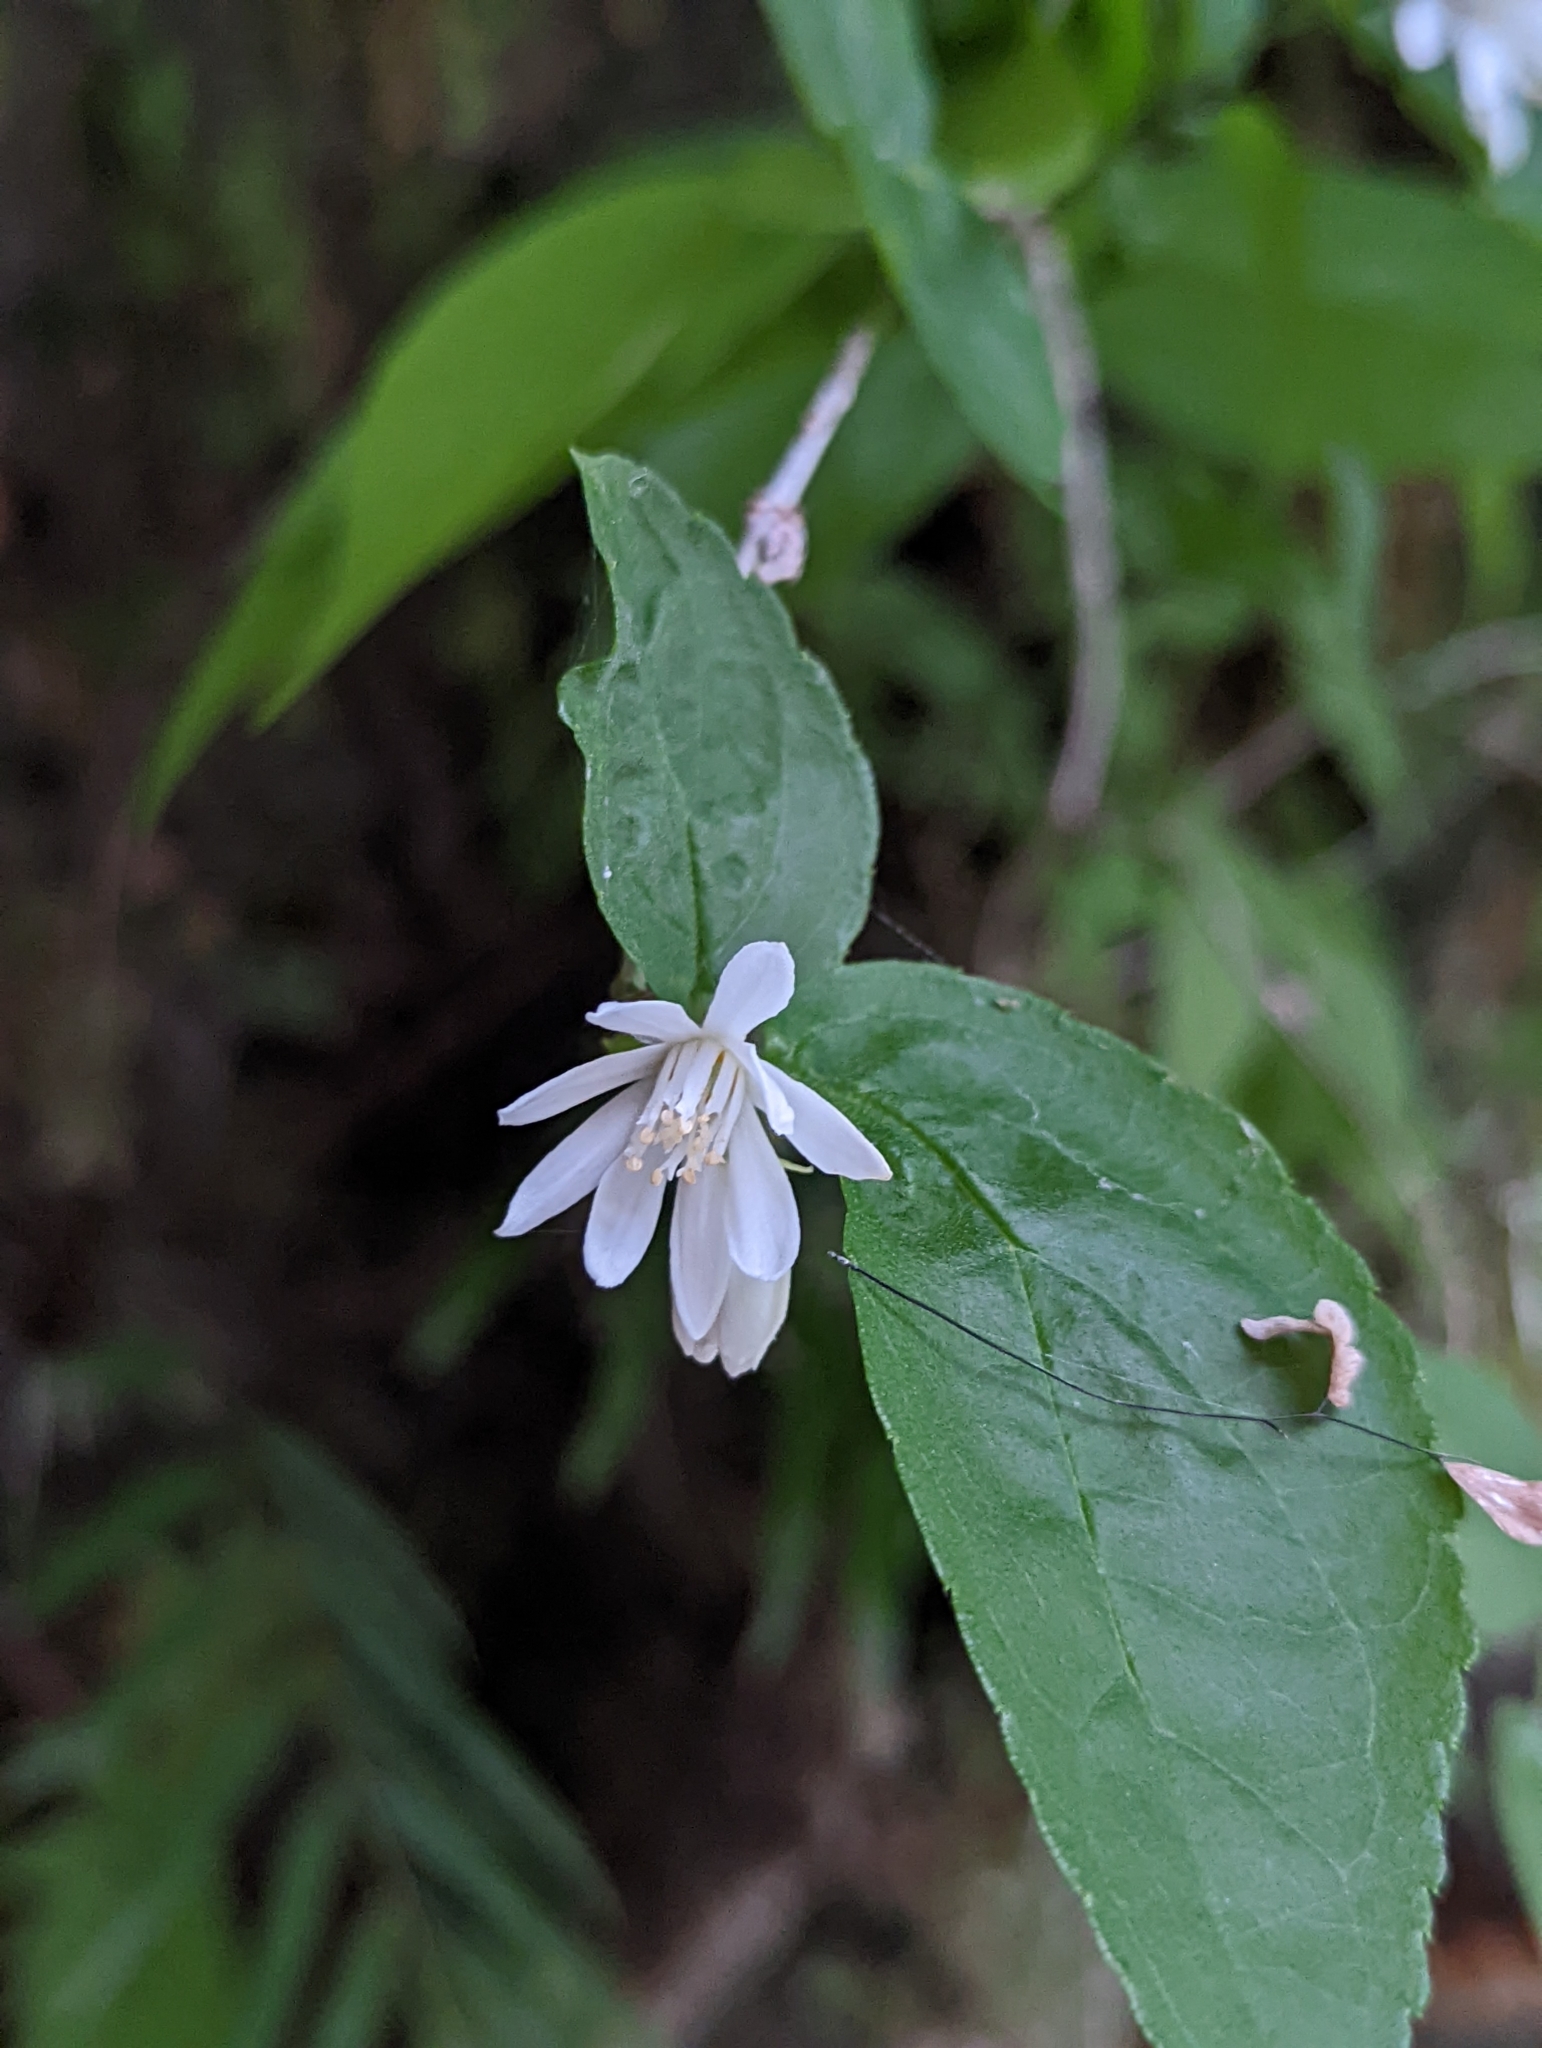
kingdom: Plantae
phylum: Tracheophyta
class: Magnoliopsida
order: Cornales
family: Hydrangeaceae
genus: Deutzia
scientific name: Deutzia taiwanensis
